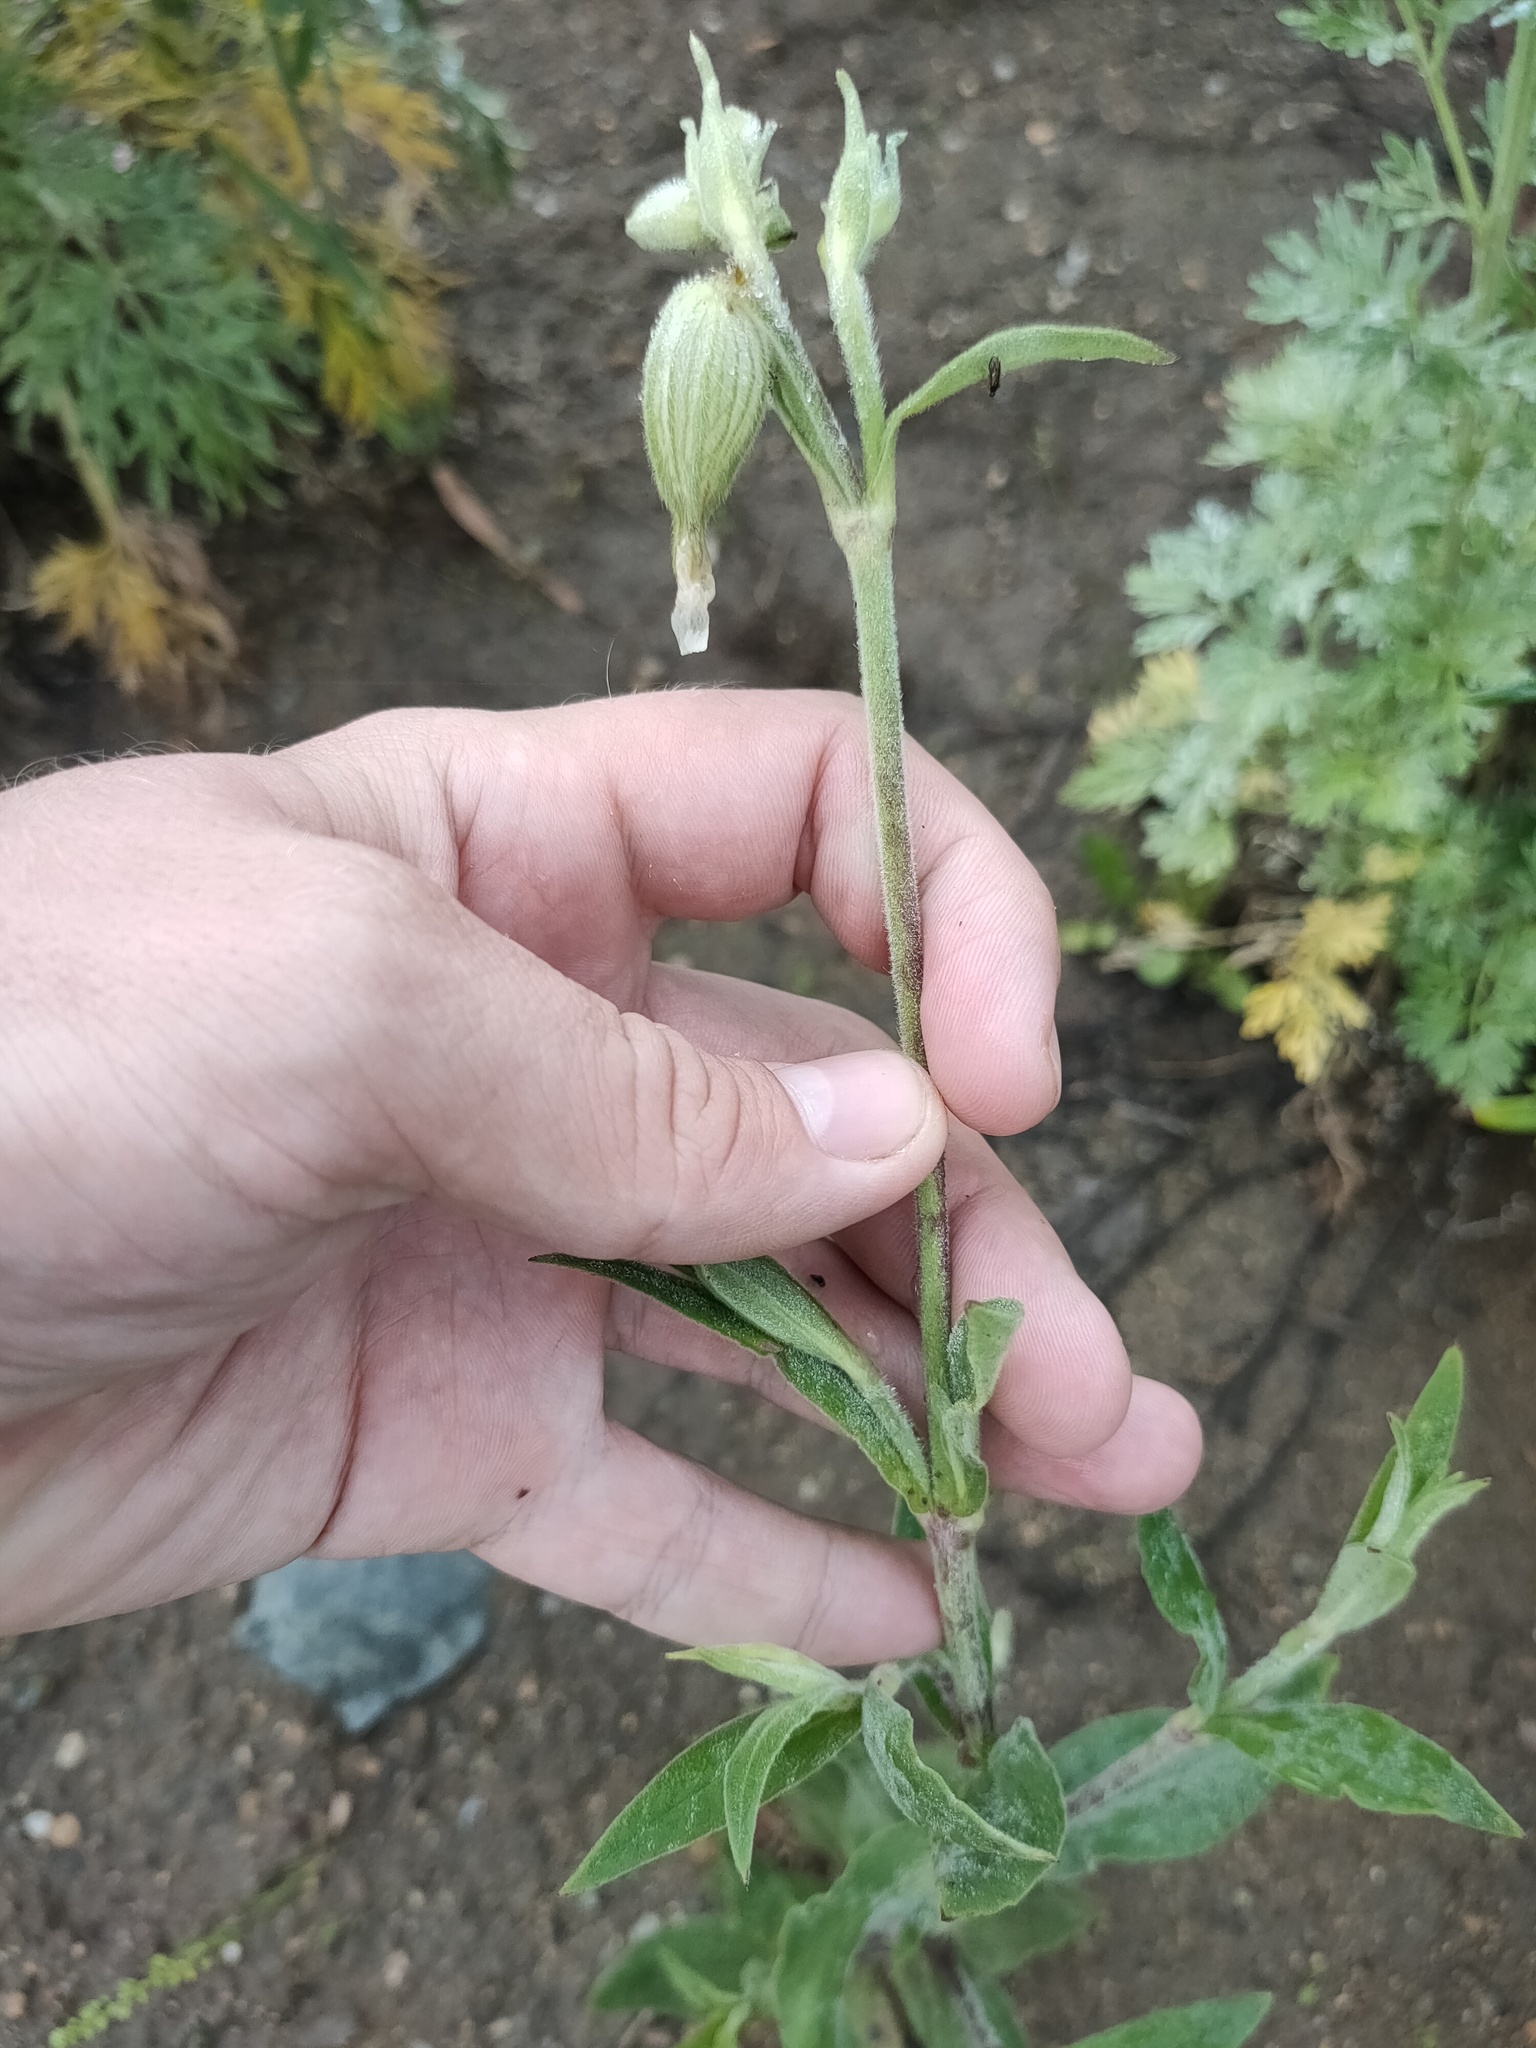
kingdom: Plantae
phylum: Tracheophyta
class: Magnoliopsida
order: Caryophyllales
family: Caryophyllaceae
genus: Silene
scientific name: Silene latifolia
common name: White campion
